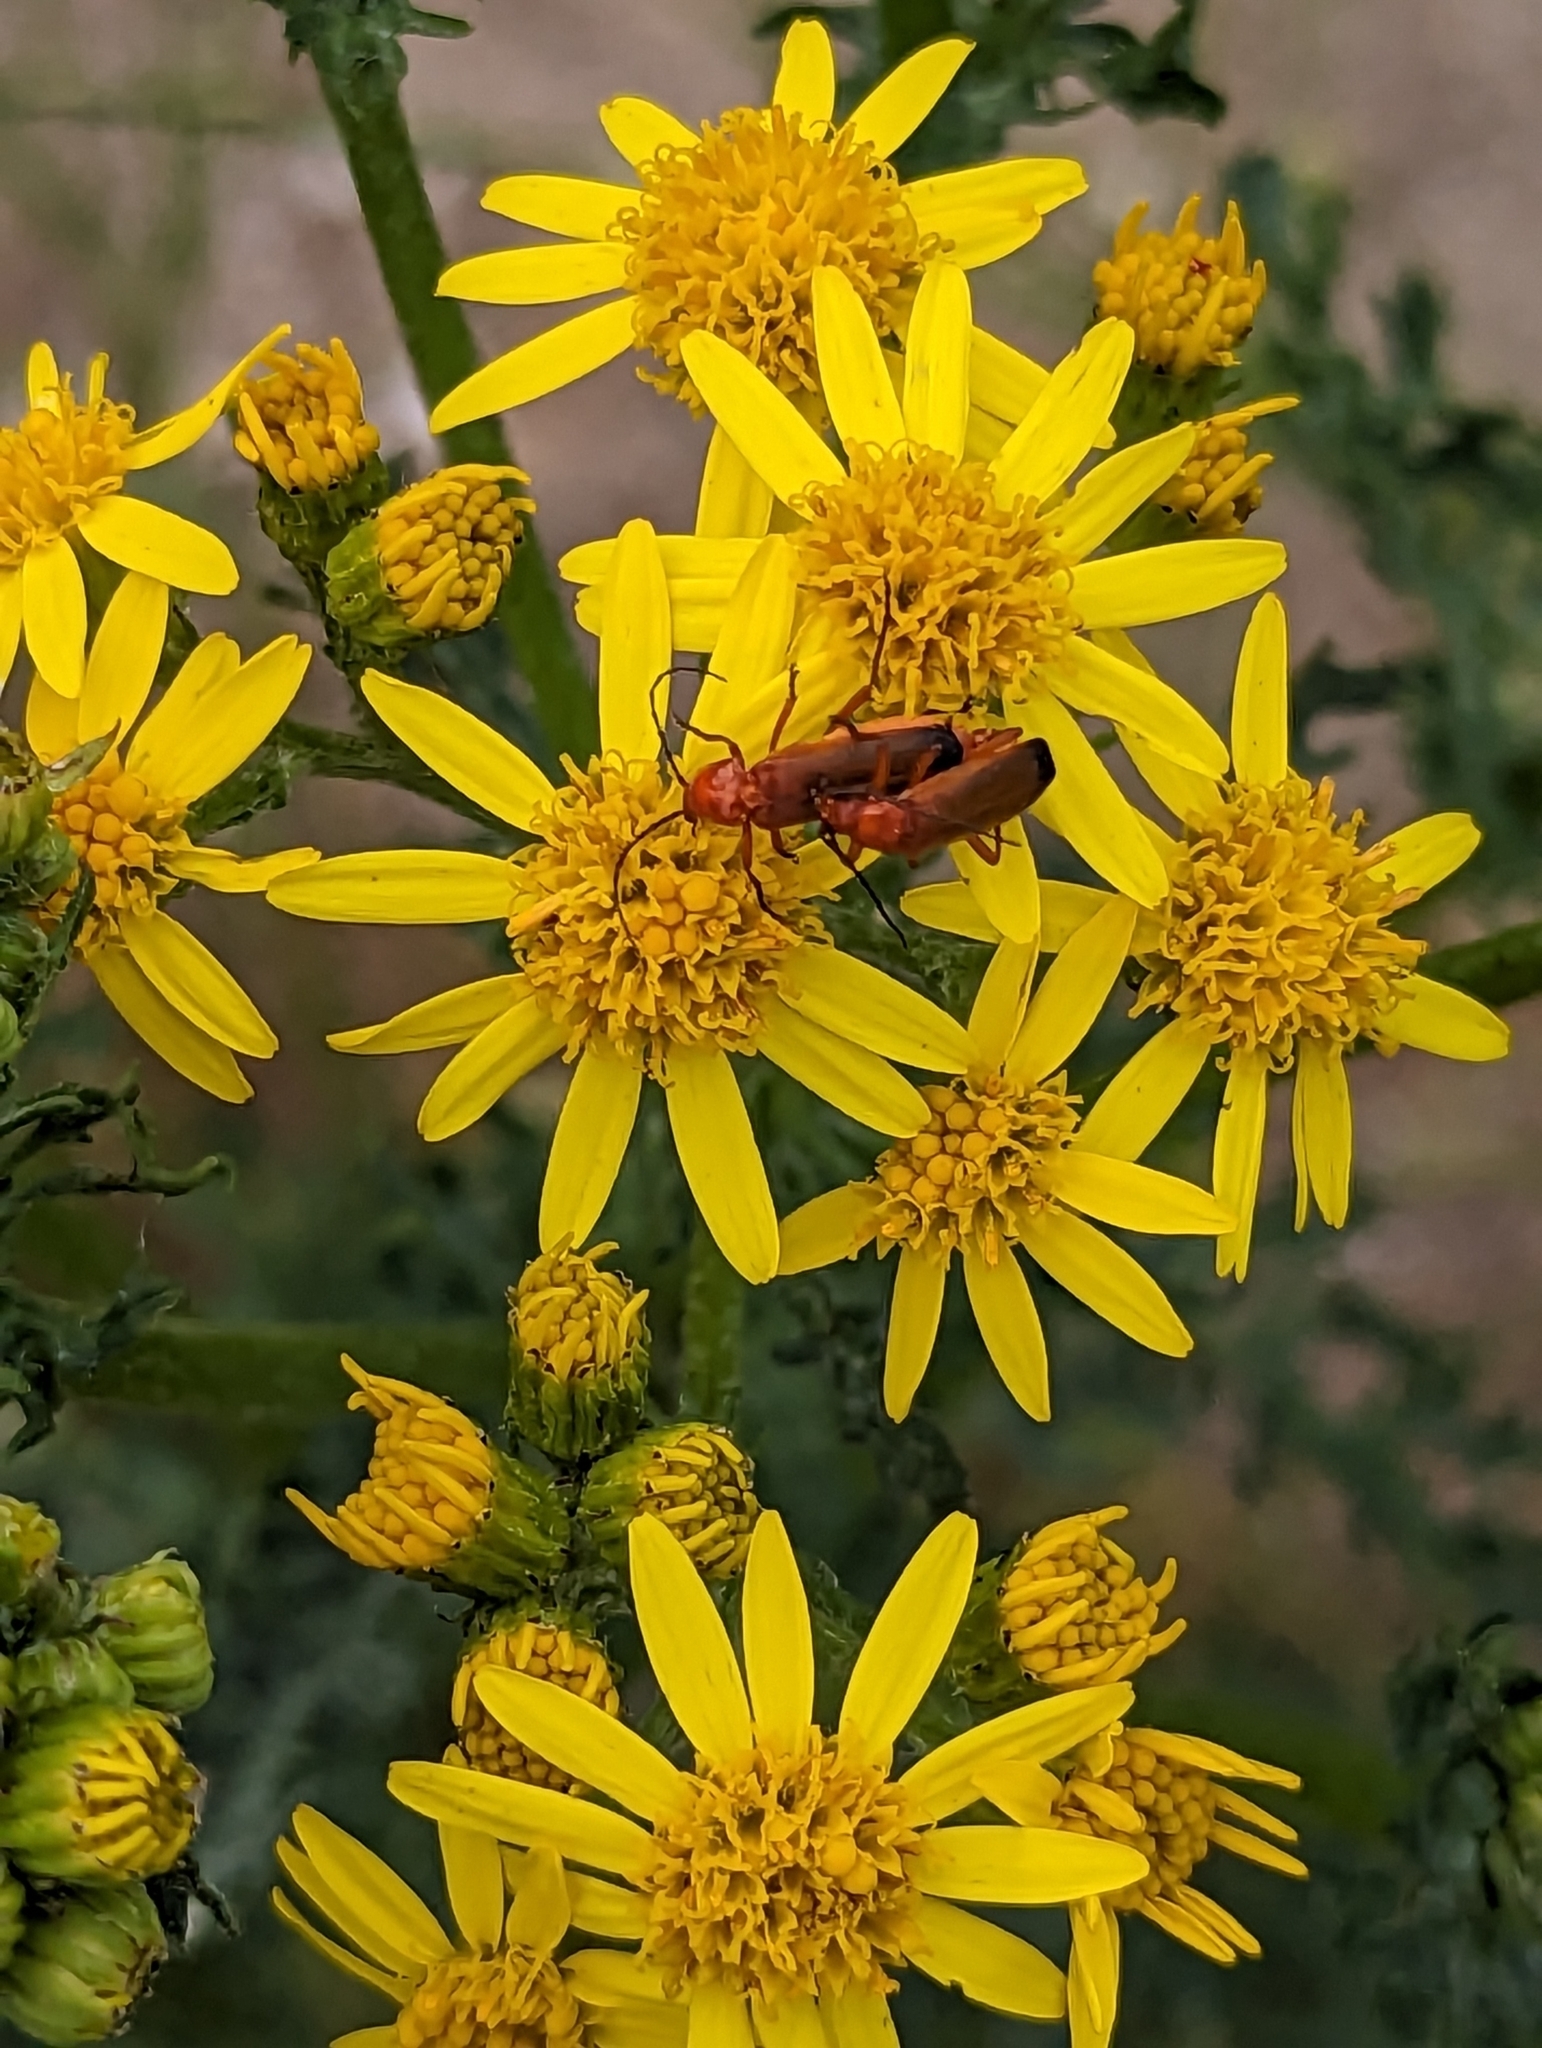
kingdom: Animalia
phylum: Arthropoda
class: Insecta
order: Coleoptera
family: Cantharidae
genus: Rhagonycha
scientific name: Rhagonycha fulva
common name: Common red soldier beetle
